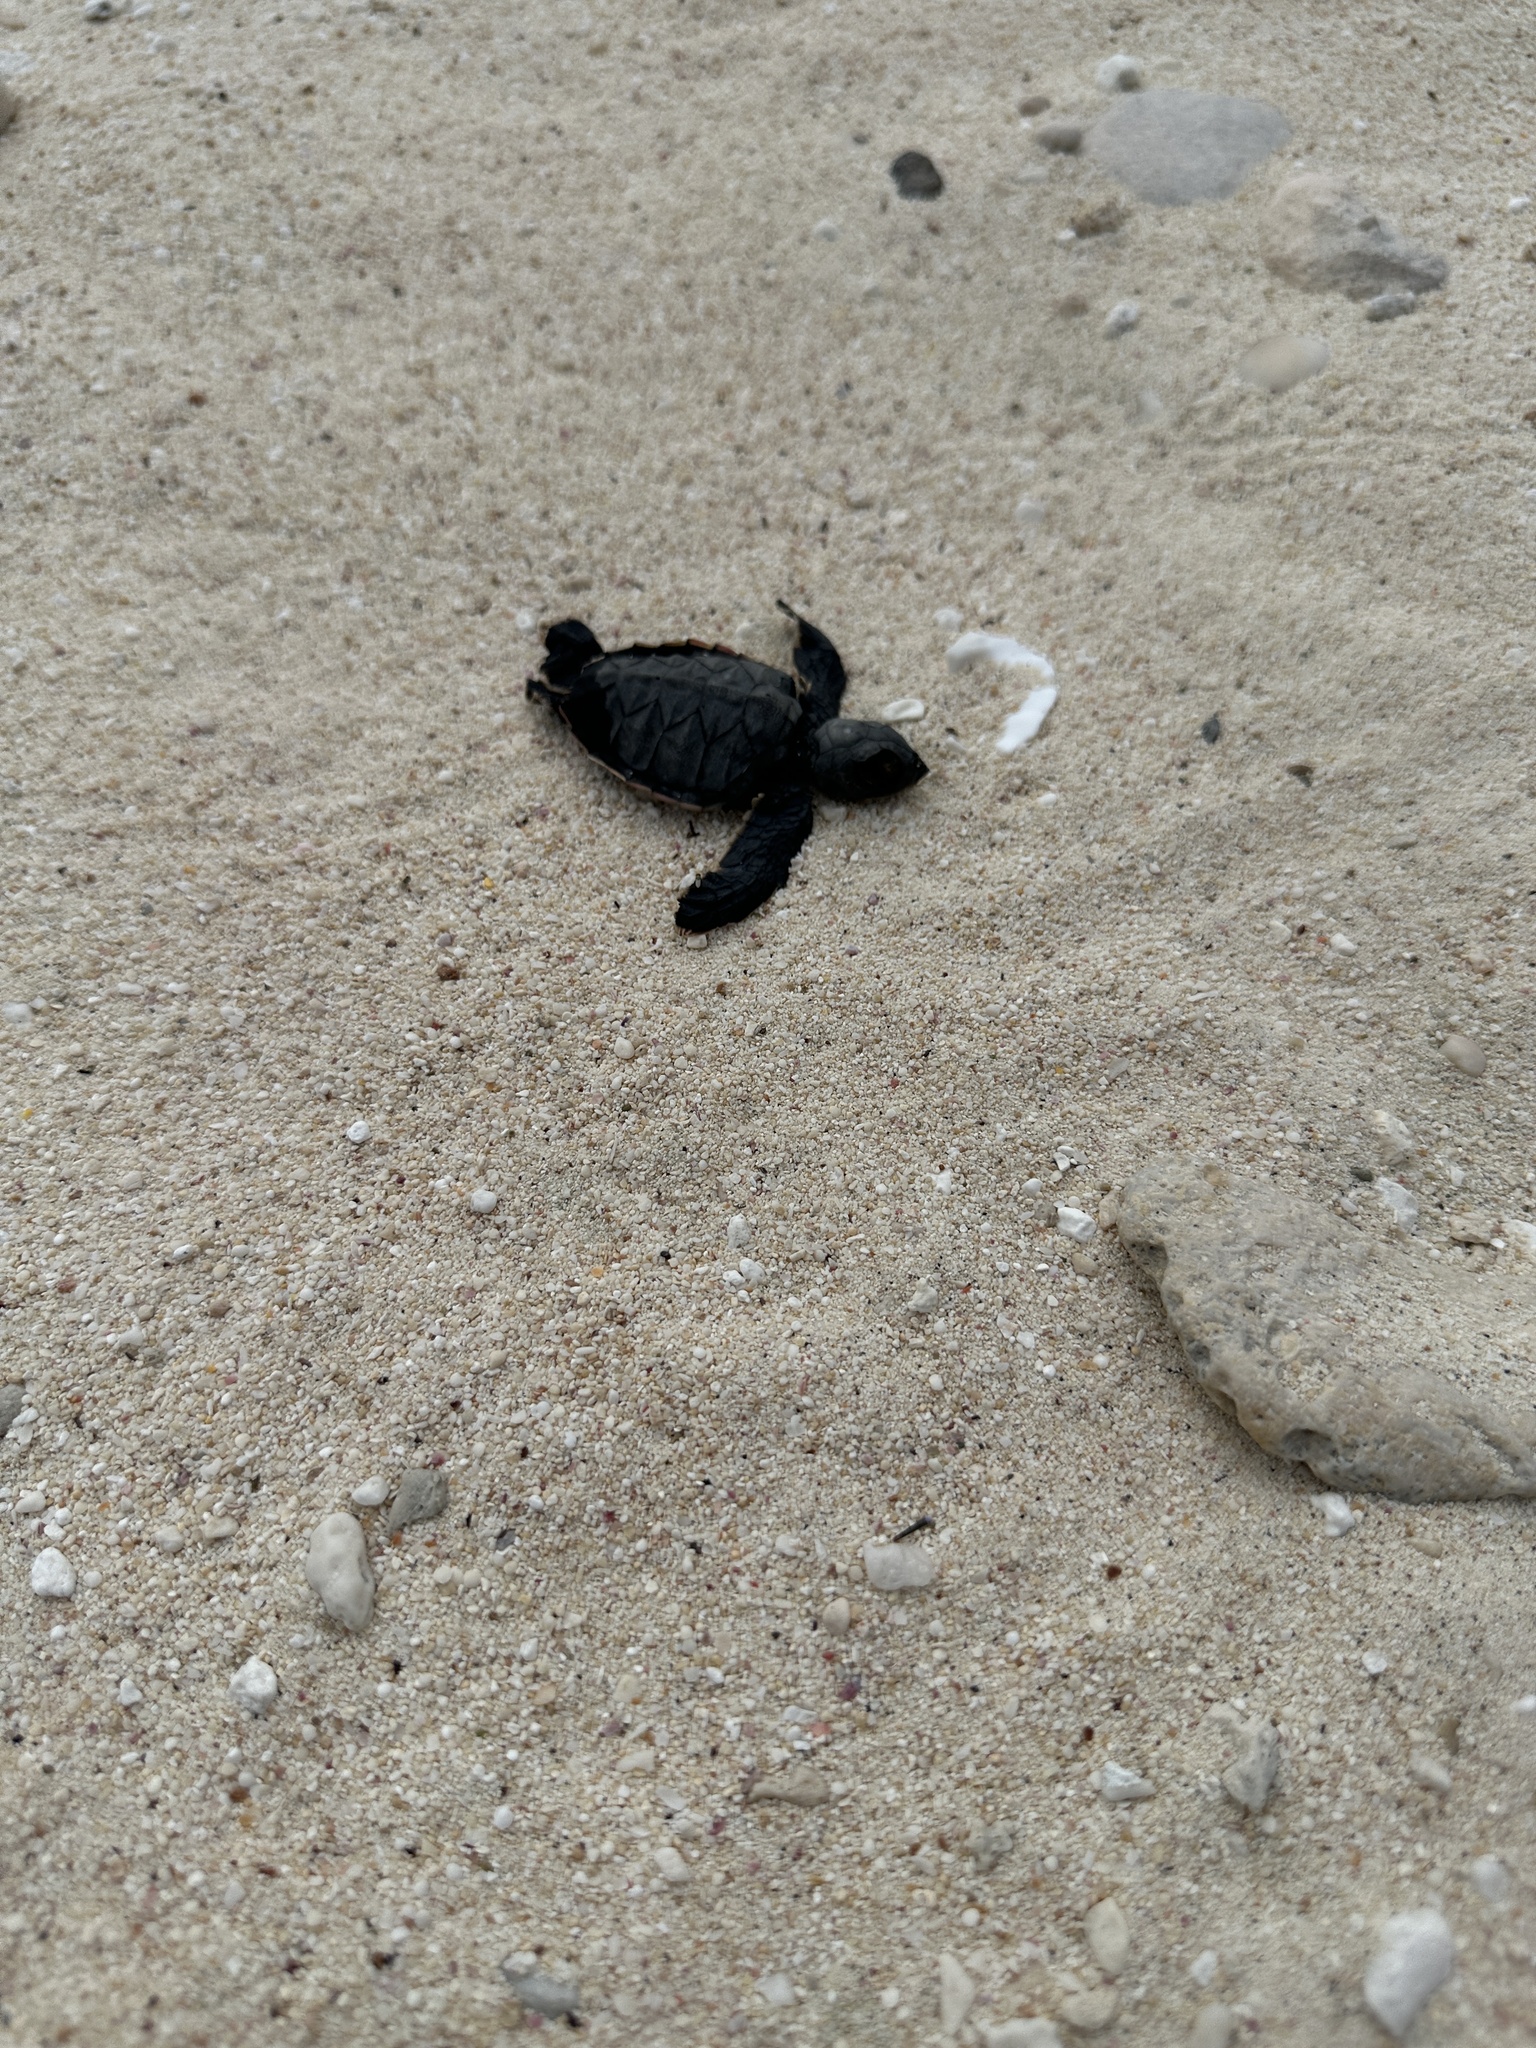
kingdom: Animalia
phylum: Chordata
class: Testudines
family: Cheloniidae
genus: Chelonia
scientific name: Chelonia mydas
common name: Green turtle
